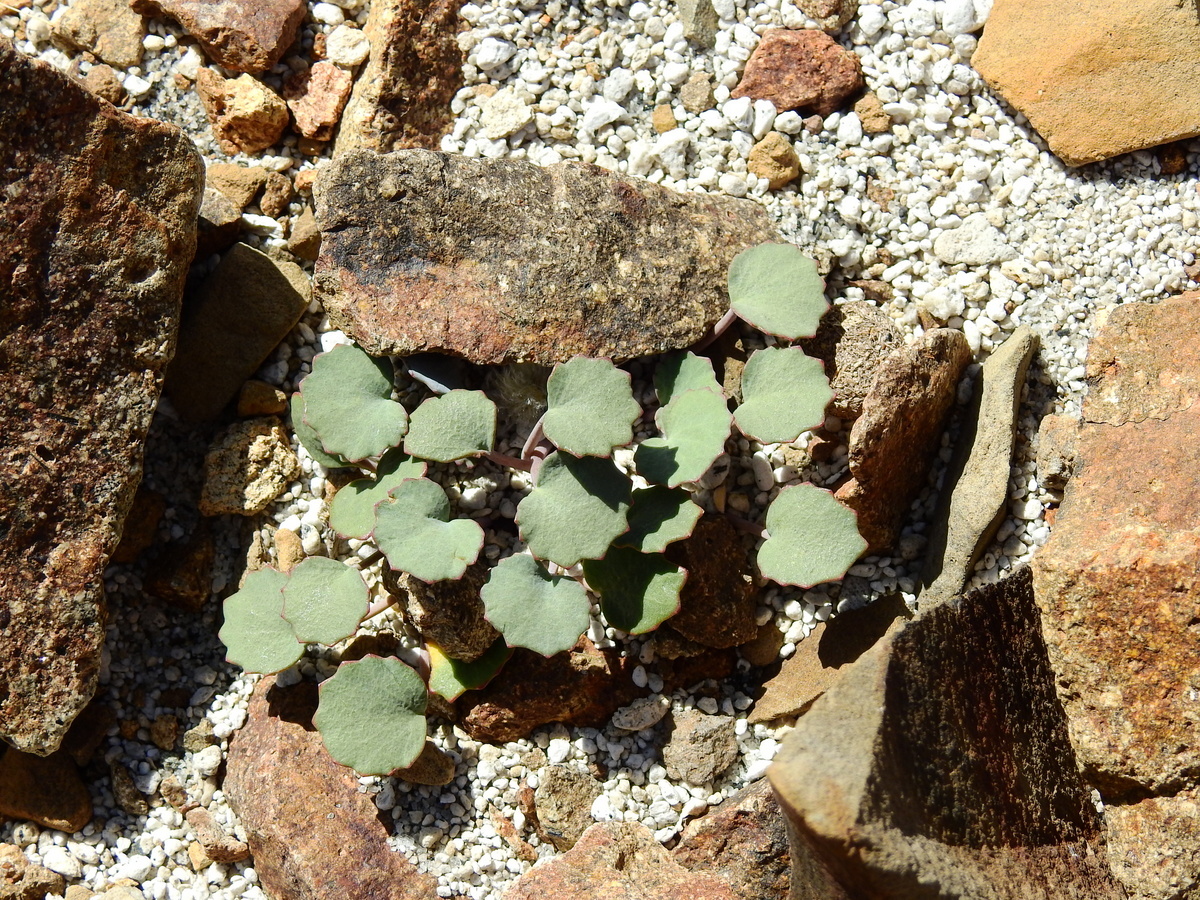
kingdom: Plantae
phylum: Tracheophyta
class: Magnoliopsida
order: Apiales
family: Apiaceae
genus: Pozoa
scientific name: Pozoa coriacea
